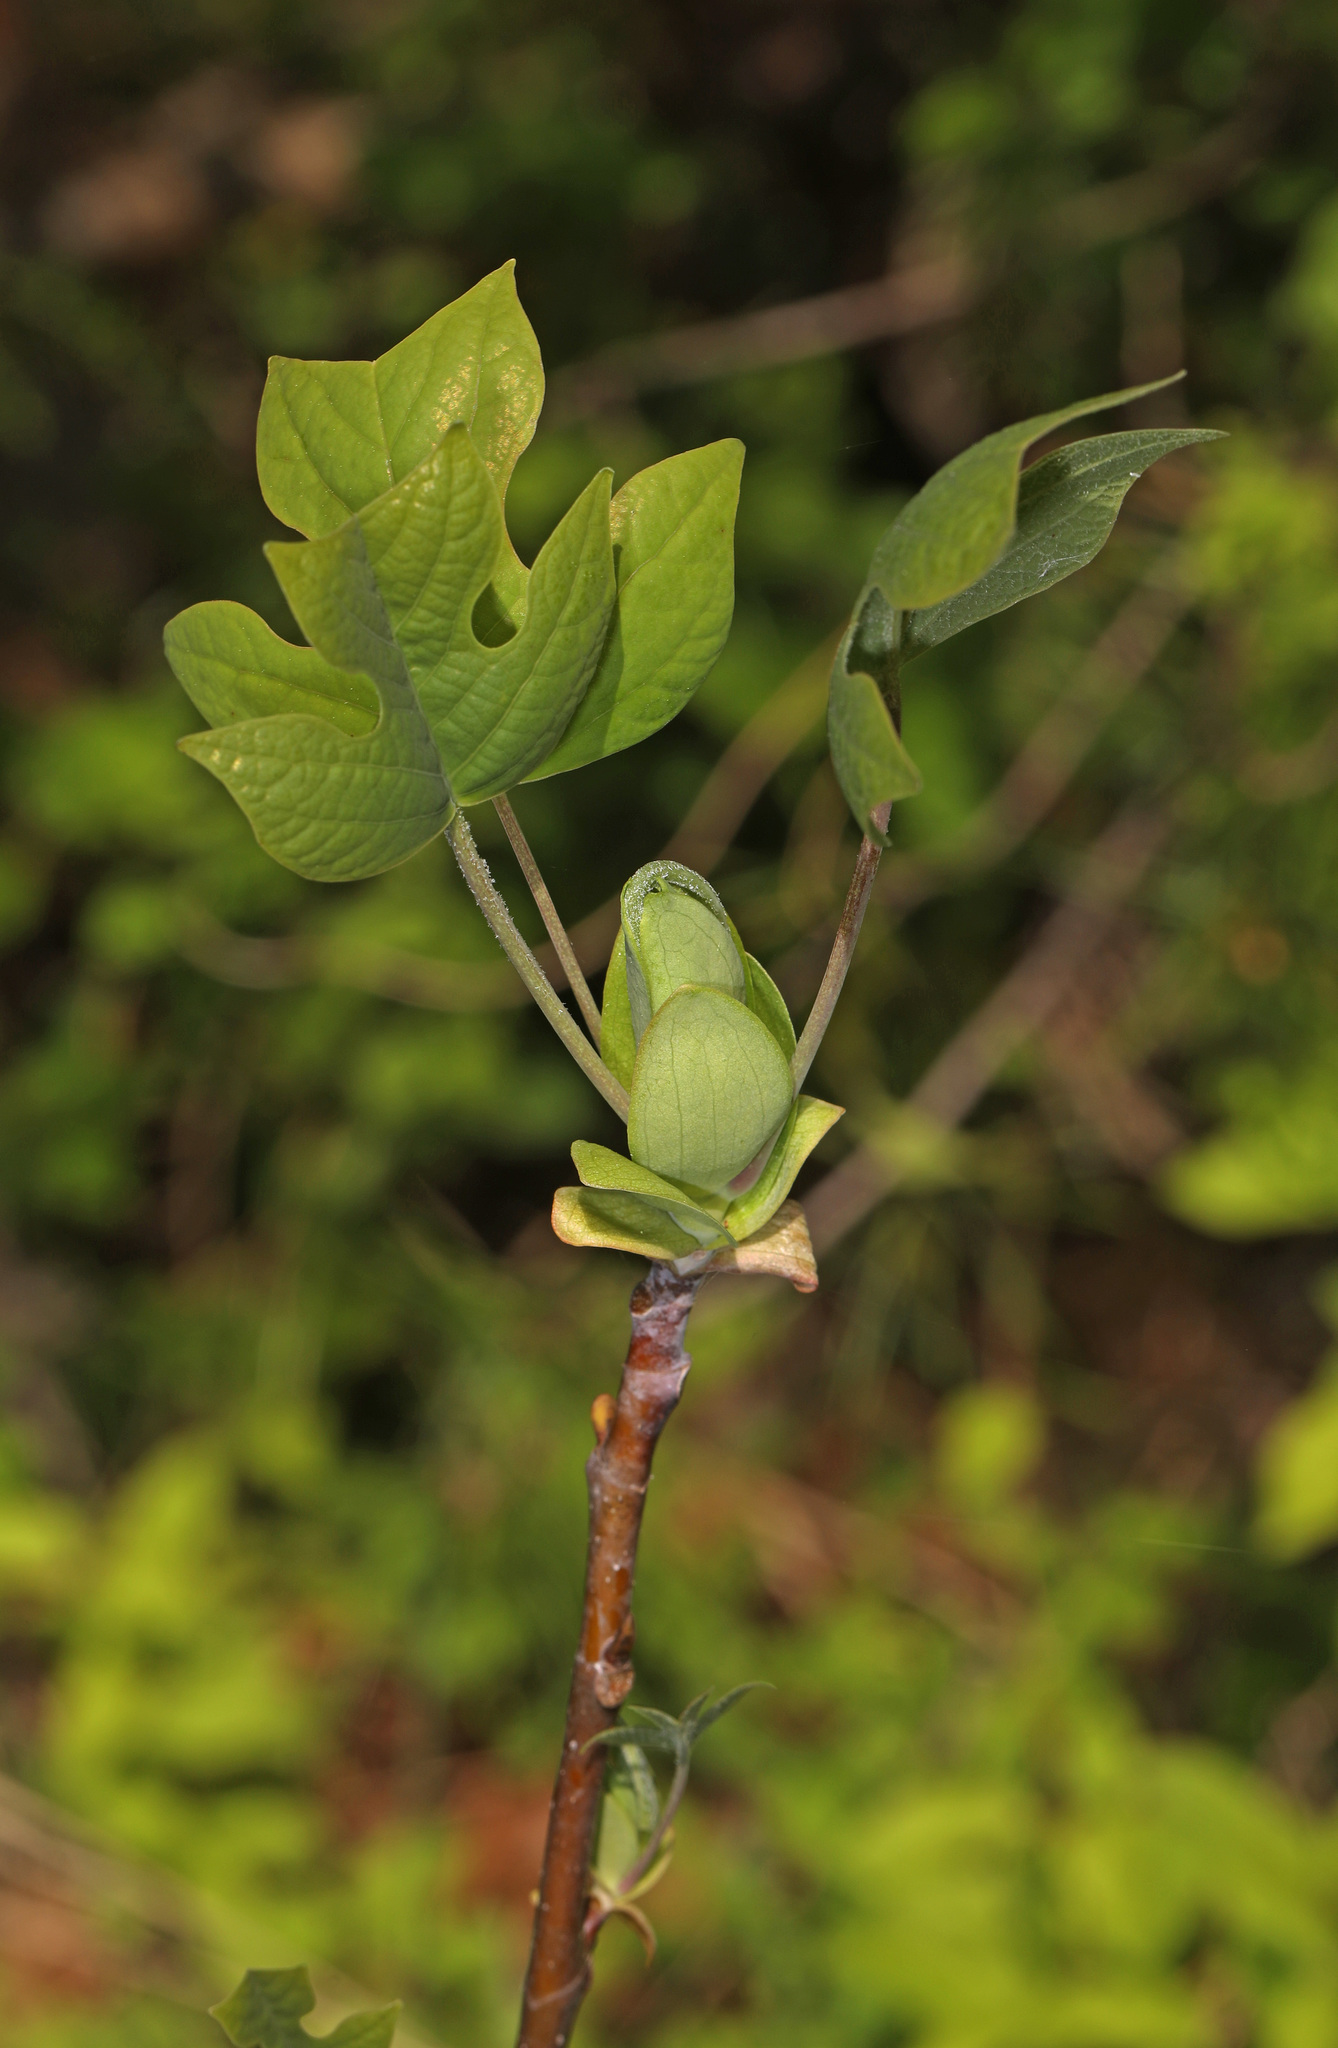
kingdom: Plantae
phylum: Tracheophyta
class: Magnoliopsida
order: Magnoliales
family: Magnoliaceae
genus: Liriodendron
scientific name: Liriodendron tulipifera
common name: Tulip tree
